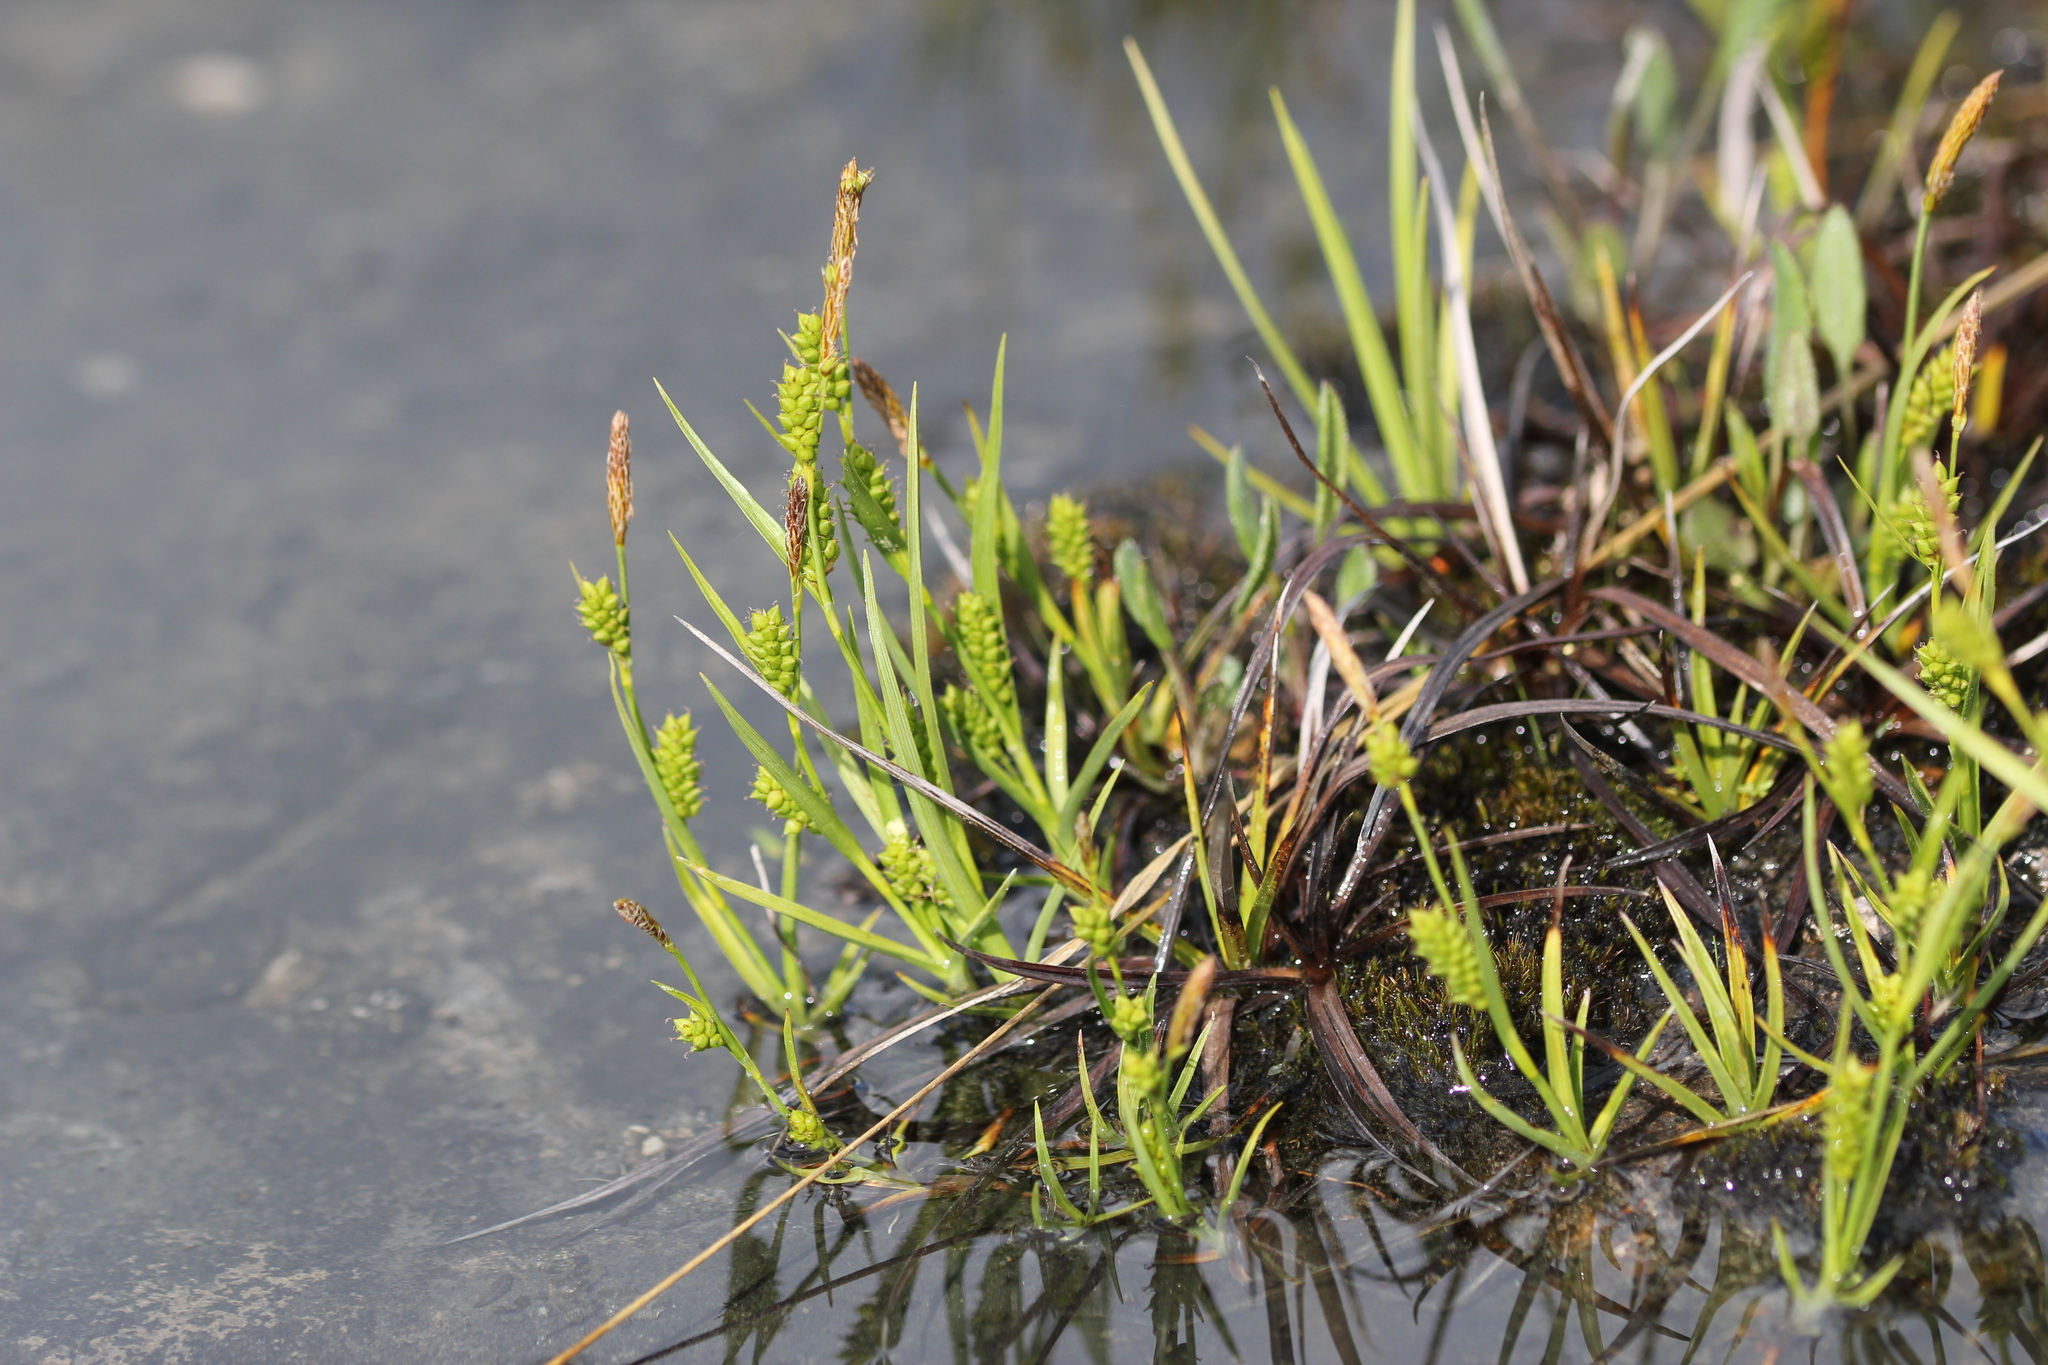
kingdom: Plantae
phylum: Tracheophyta
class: Liliopsida
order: Poales
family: Cyperaceae
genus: Carex
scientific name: Carex crawei
